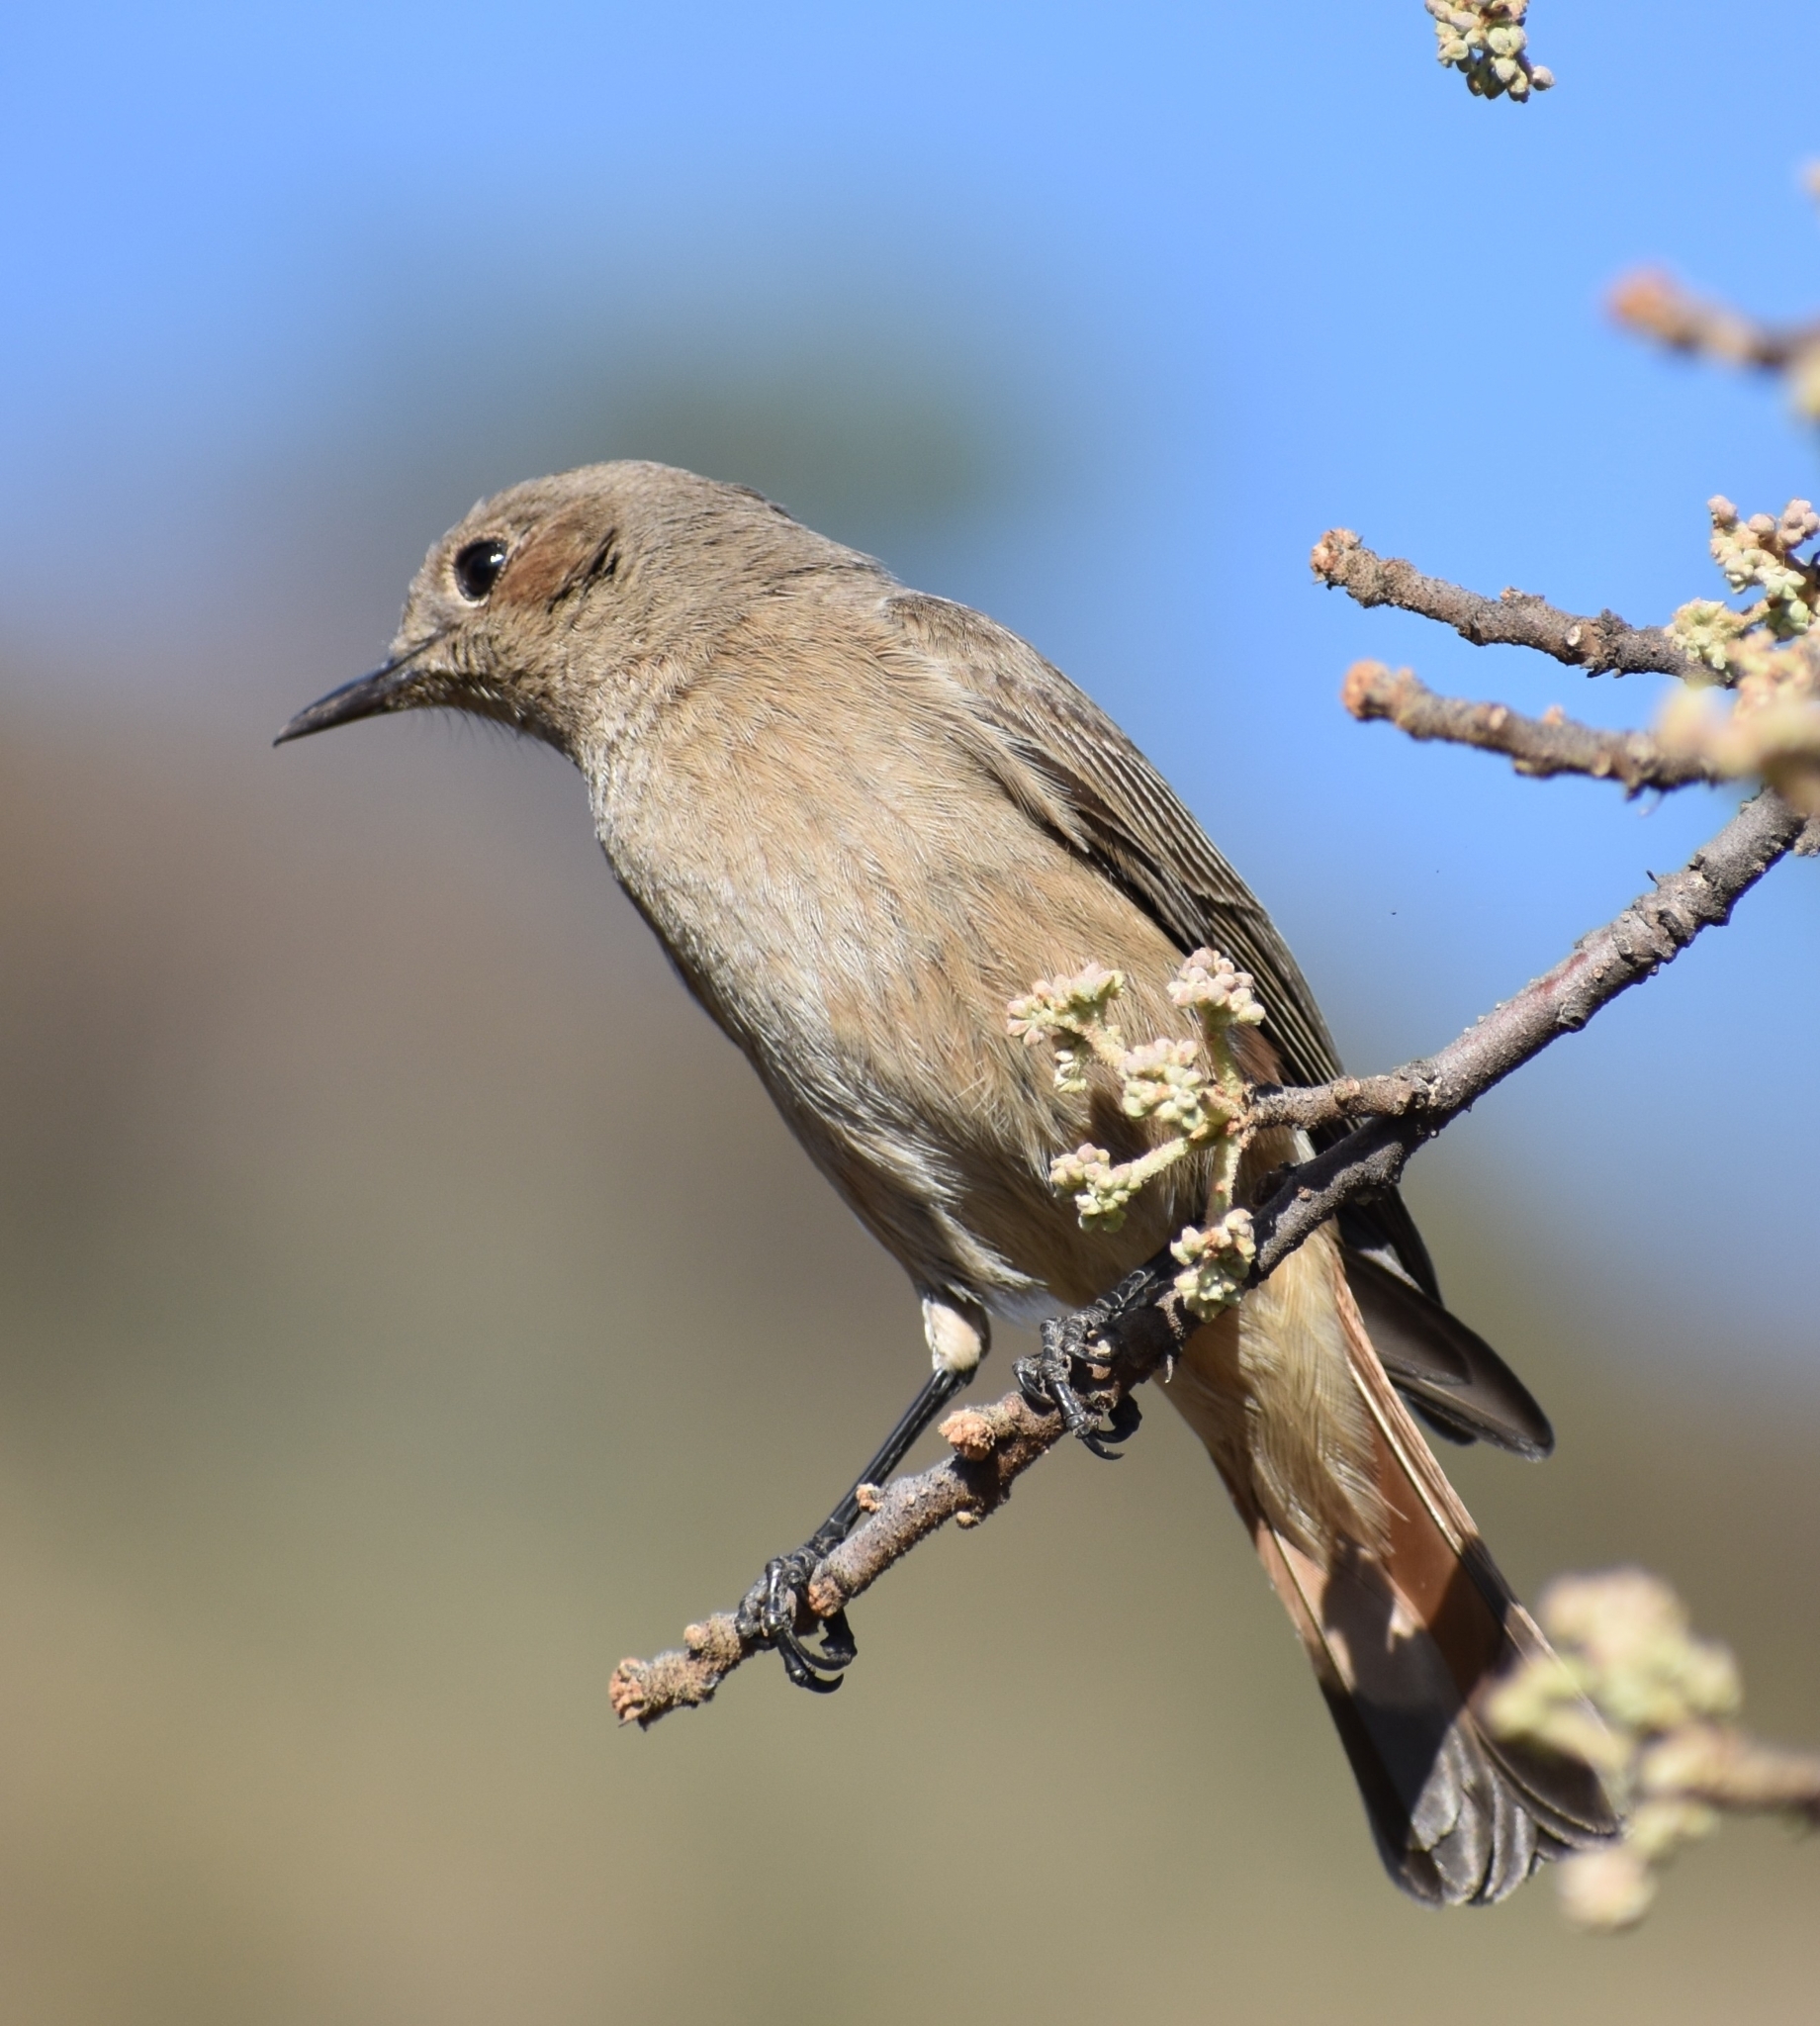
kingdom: Animalia
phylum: Chordata
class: Aves
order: Passeriformes
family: Muscicapidae
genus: Oenanthe
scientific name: Oenanthe familiaris
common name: Familiar chat
